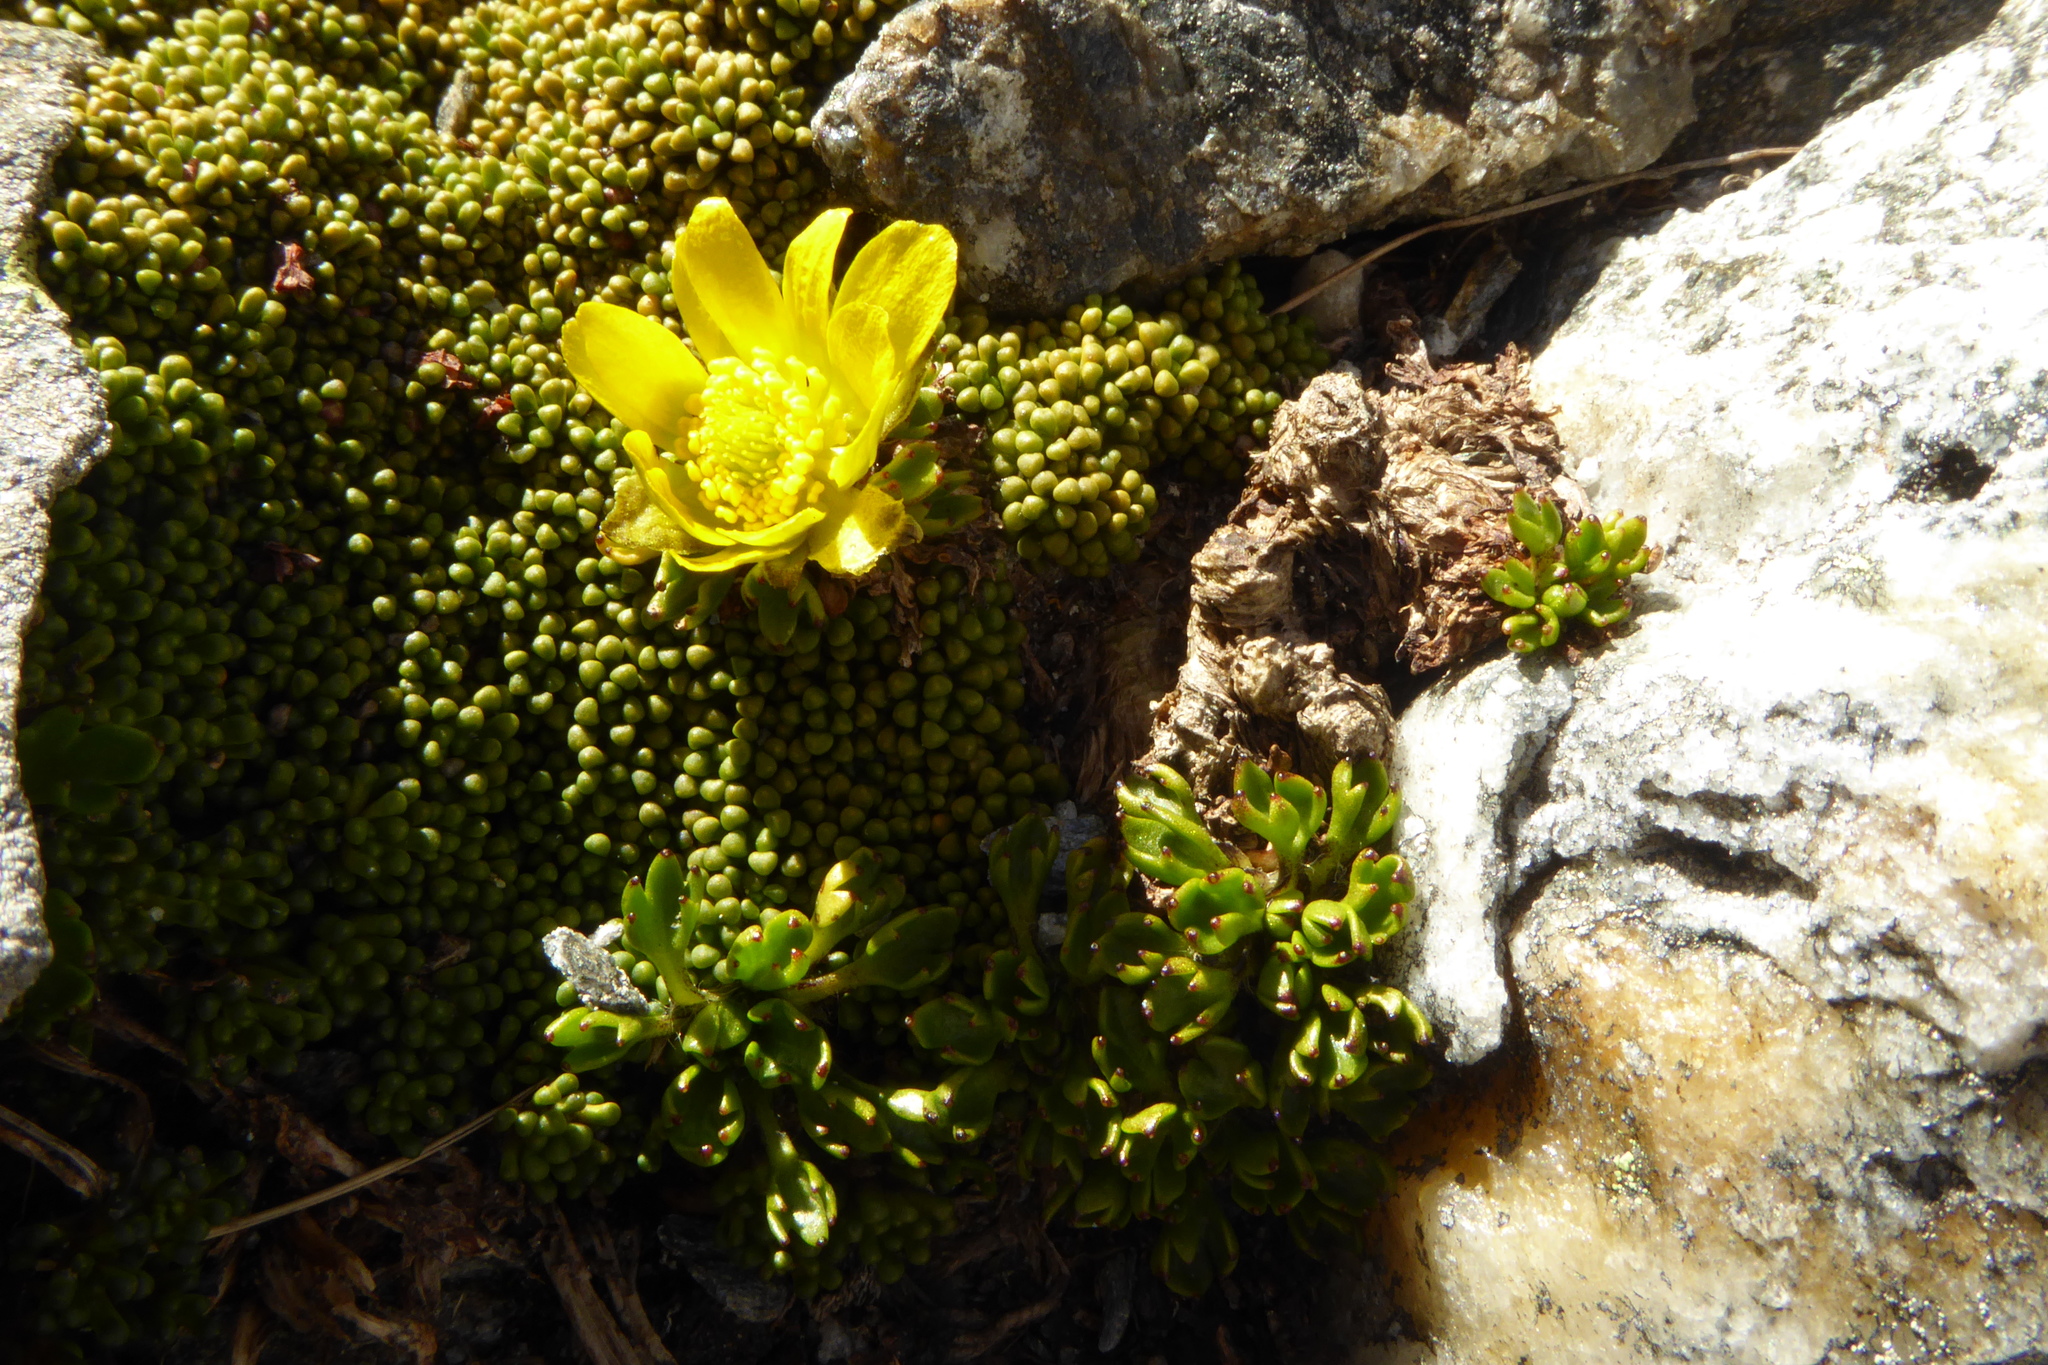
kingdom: Plantae
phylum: Tracheophyta
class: Magnoliopsida
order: Ranunculales
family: Ranunculaceae
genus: Ranunculus
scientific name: Ranunculus pachyrrhizus
